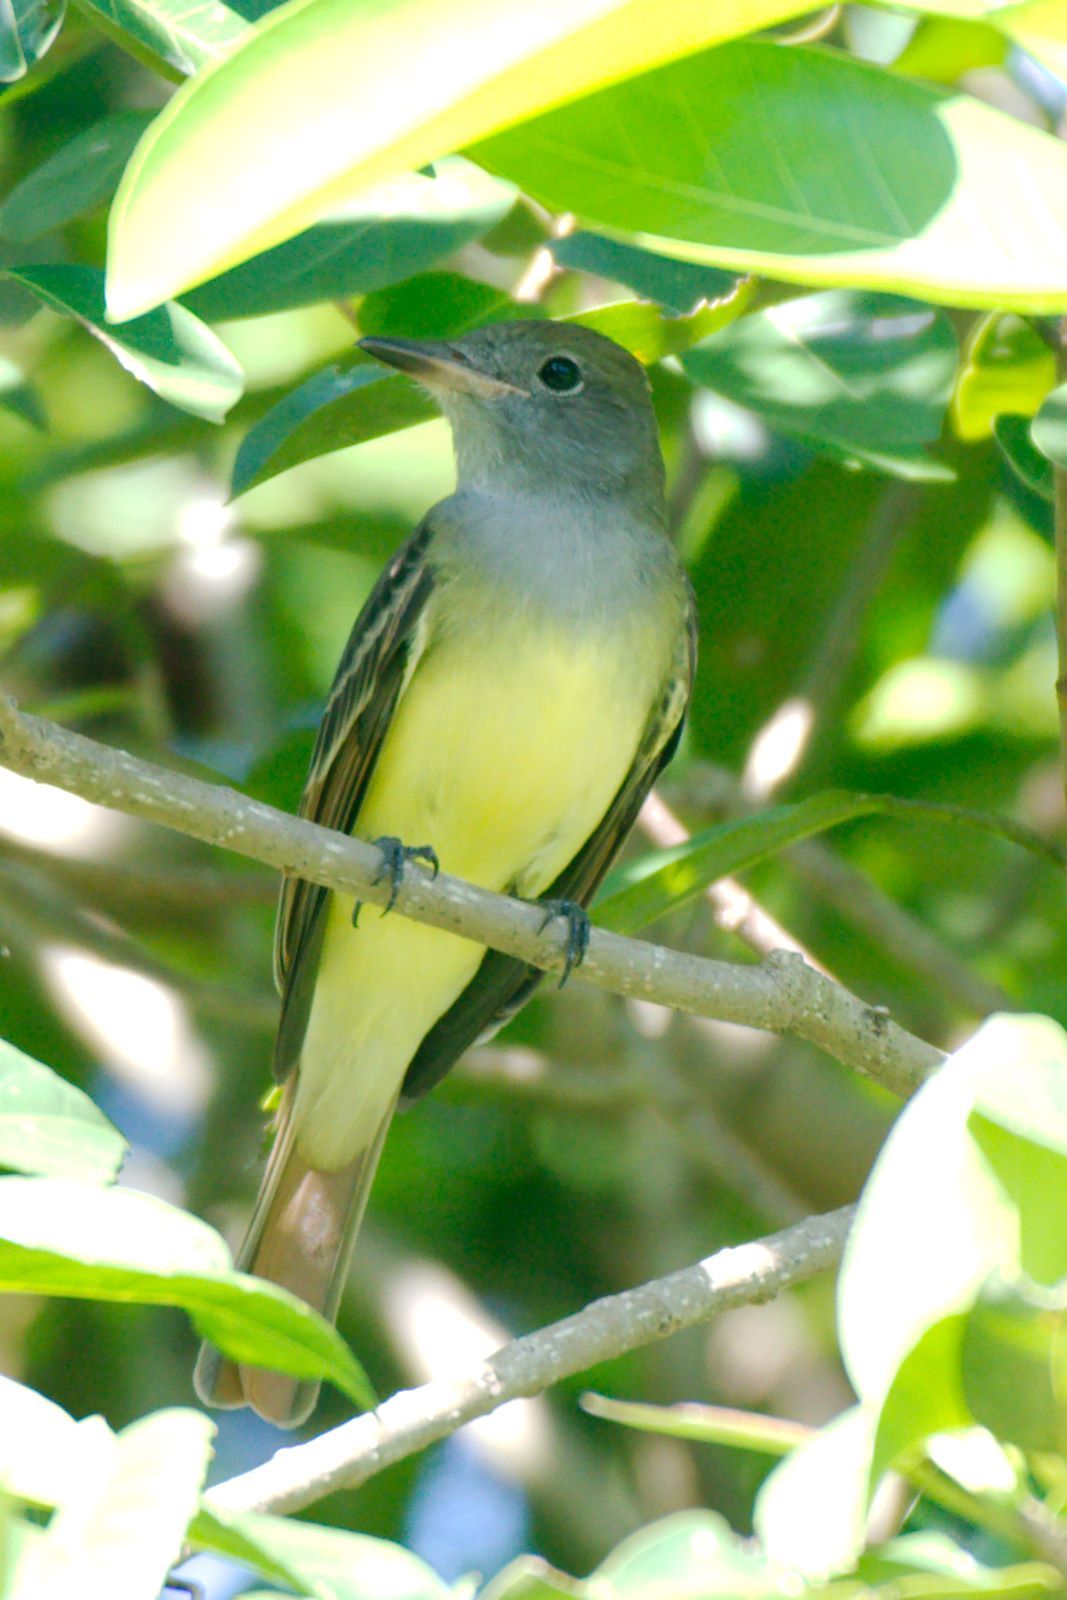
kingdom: Animalia
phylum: Chordata
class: Aves
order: Passeriformes
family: Tyrannidae
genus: Myiarchus
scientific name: Myiarchus crinitus
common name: Great crested flycatcher
